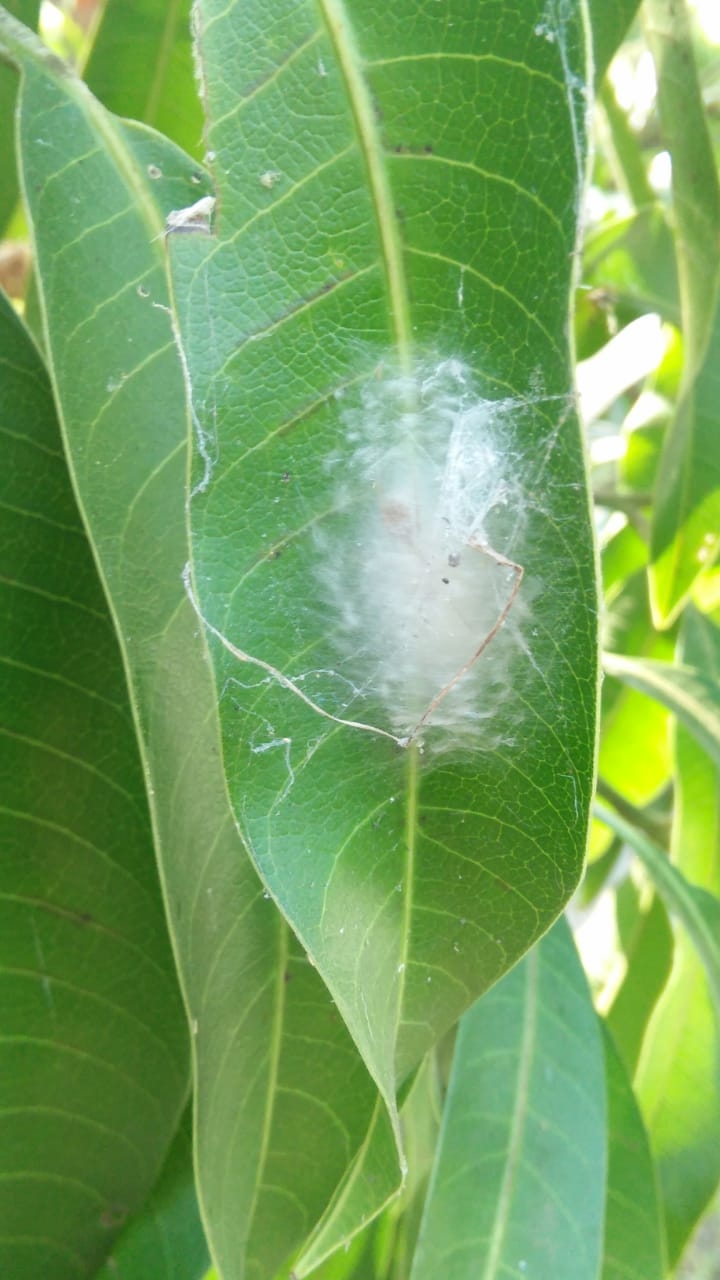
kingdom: Animalia
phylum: Arthropoda
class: Arachnida
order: Araneae
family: Salticidae
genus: Myrmaplata
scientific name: Myrmaplata plataleoides
